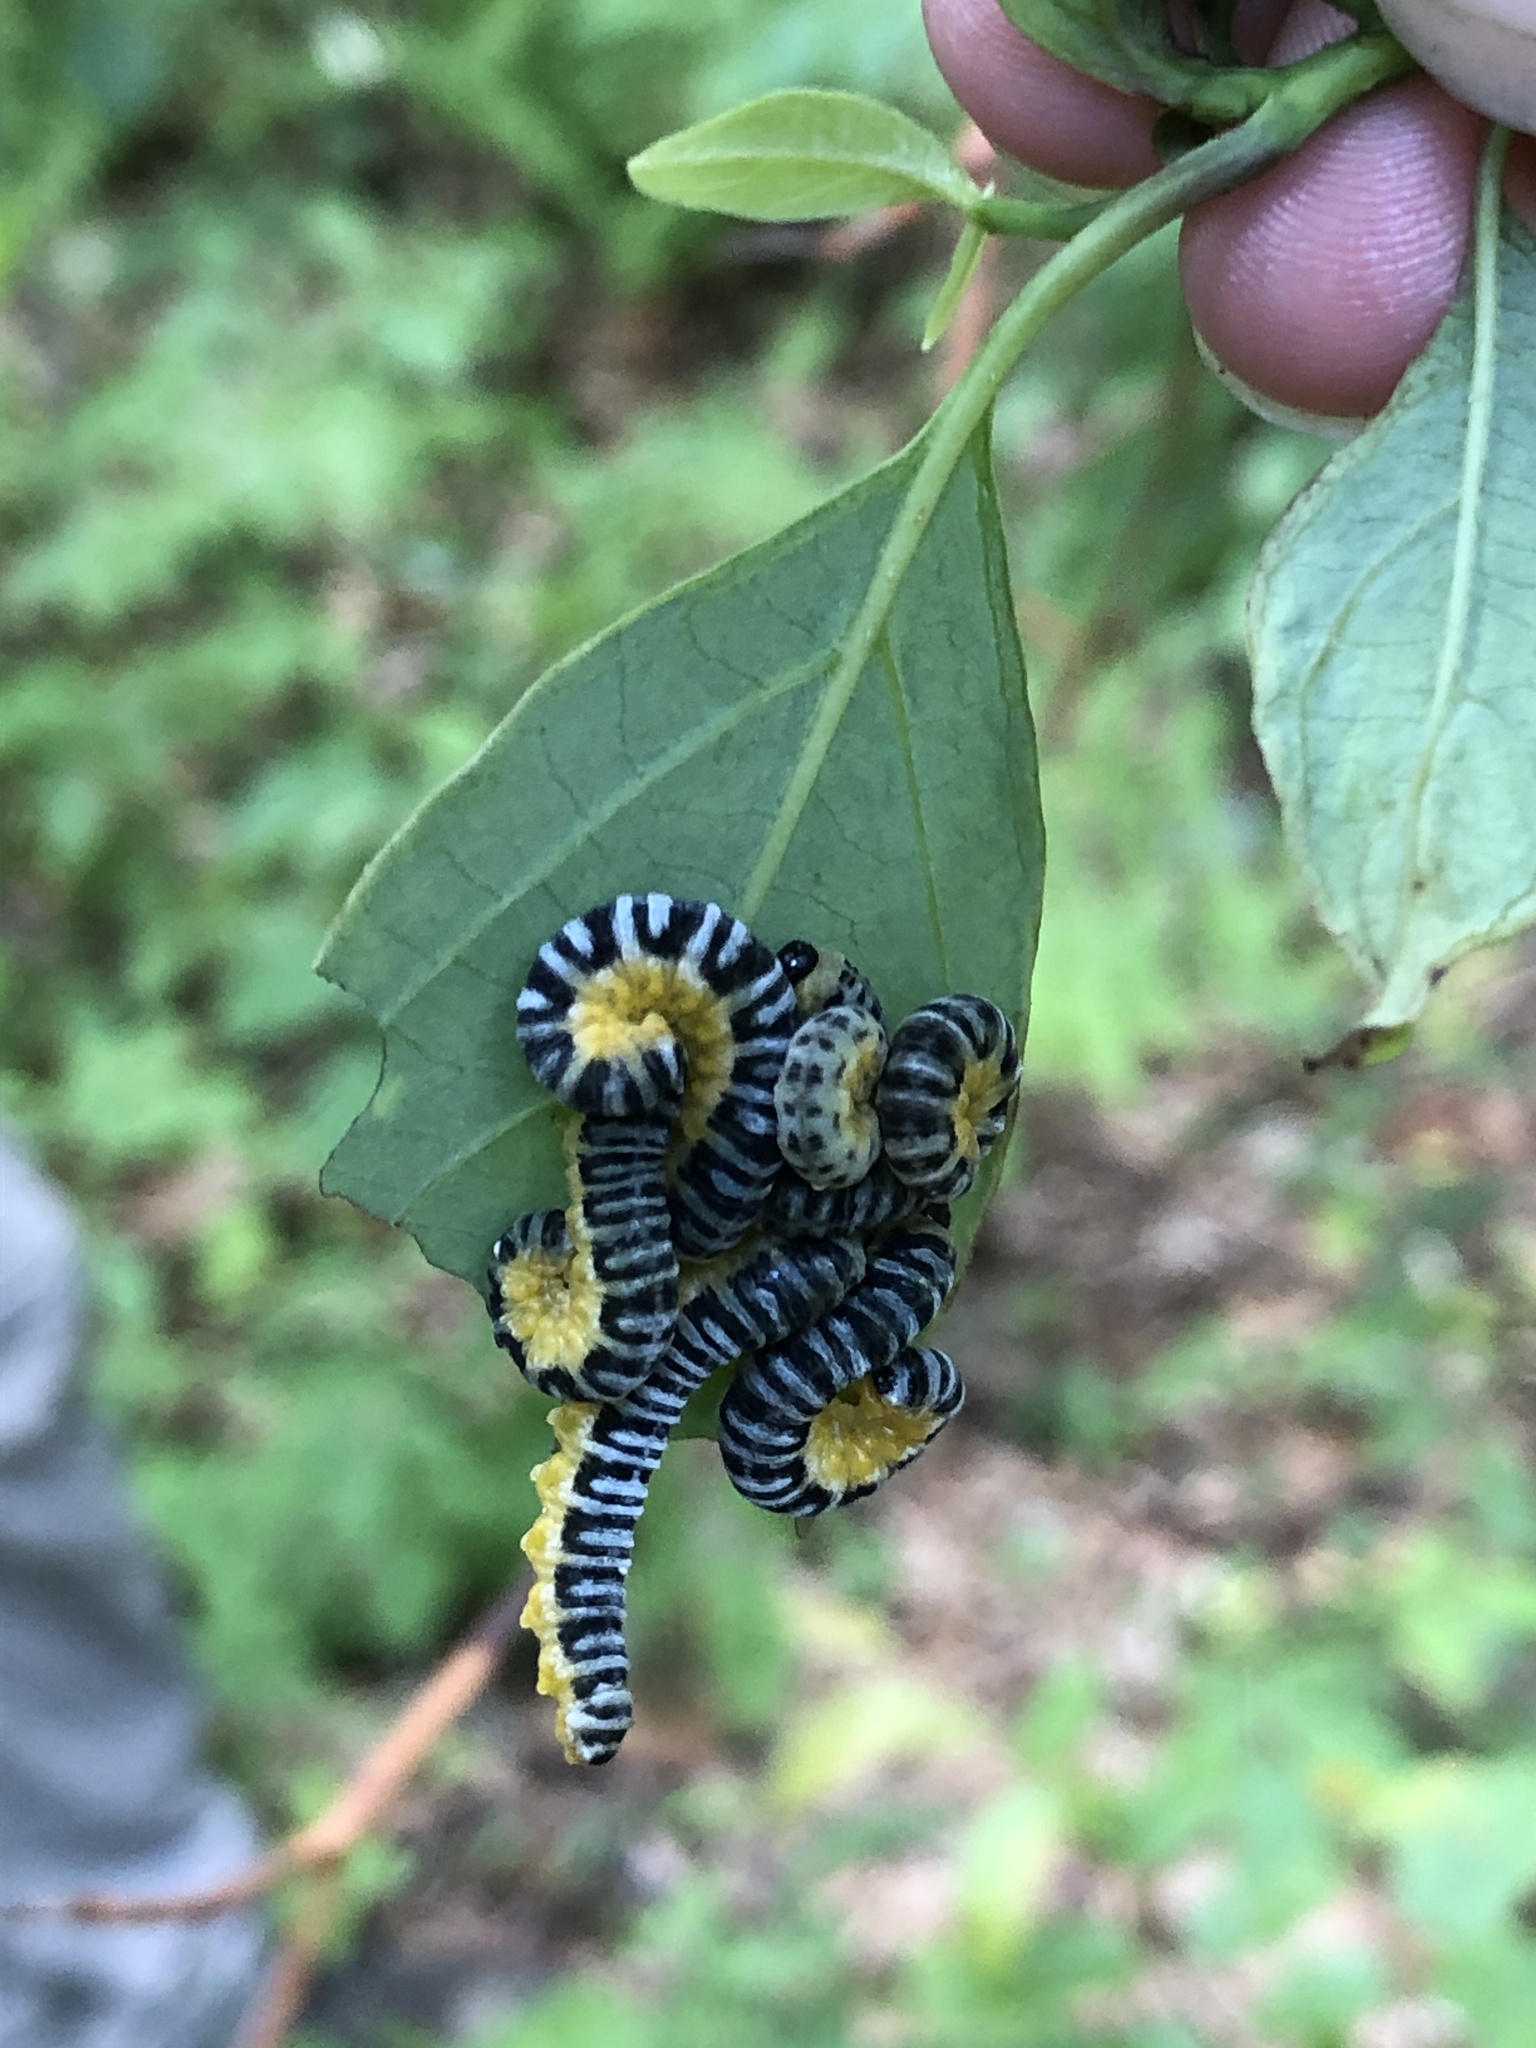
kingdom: Animalia
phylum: Arthropoda
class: Insecta
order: Hymenoptera
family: Tenthredinidae
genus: Macremphytus
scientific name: Macremphytus
